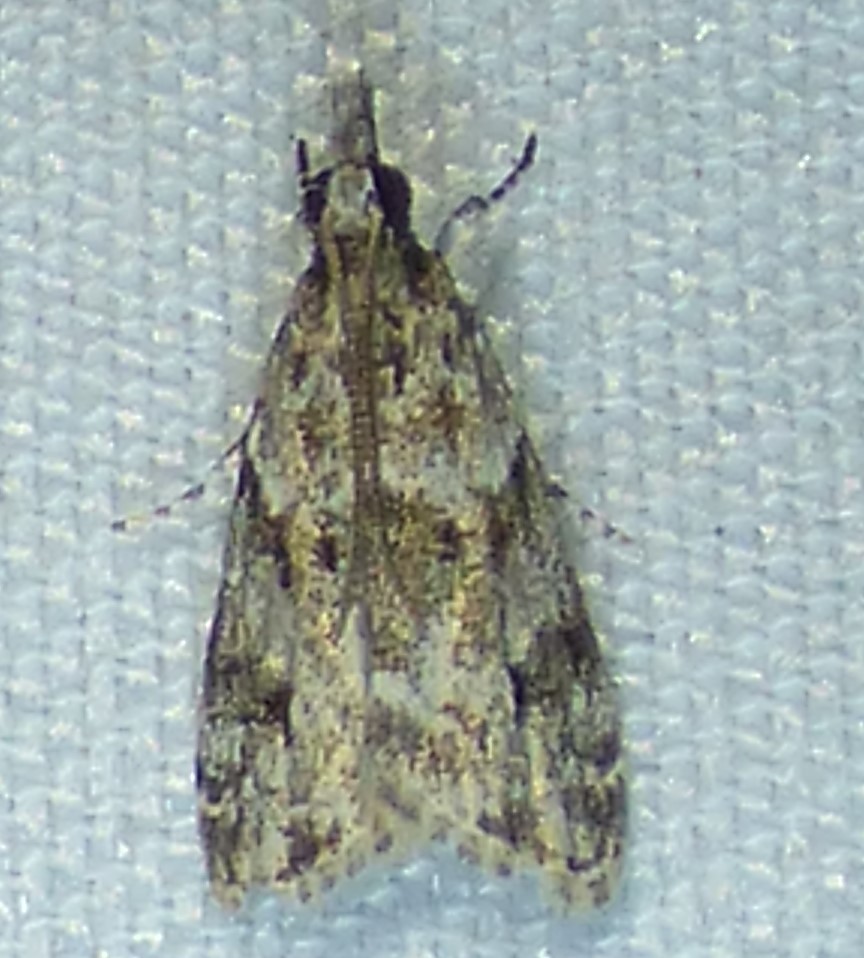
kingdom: Animalia
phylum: Arthropoda
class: Insecta
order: Lepidoptera
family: Crambidae
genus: Eudonia
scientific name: Eudonia heterosalis
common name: Mcdunnough's eudonia
